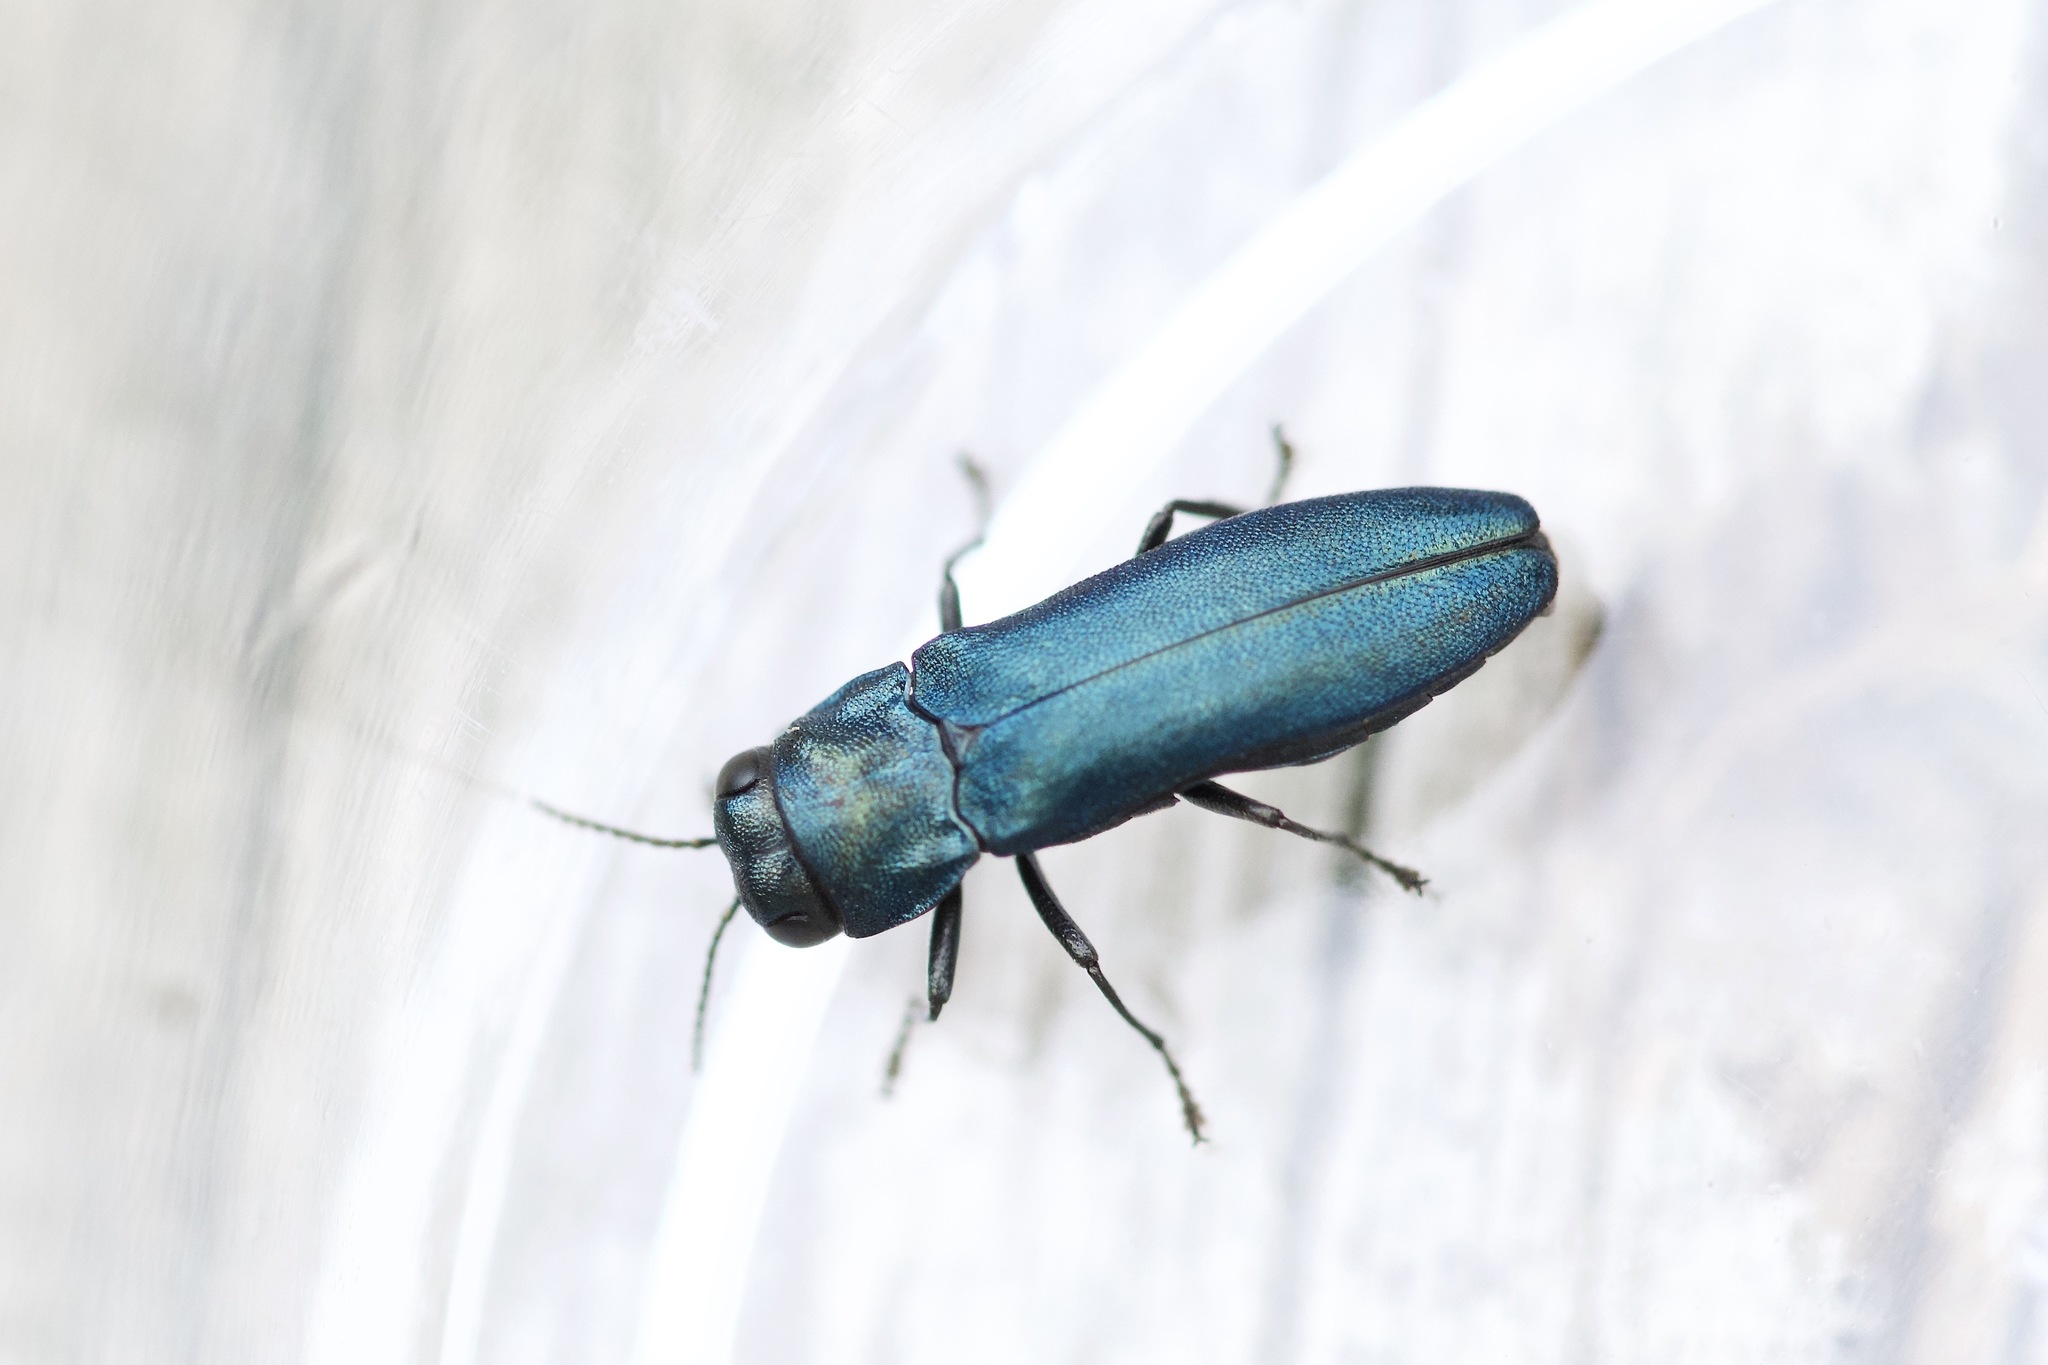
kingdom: Animalia
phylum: Arthropoda
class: Insecta
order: Coleoptera
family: Buprestidae
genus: Agrilus
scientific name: Agrilus cyanescens
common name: Bluish borer beetle
